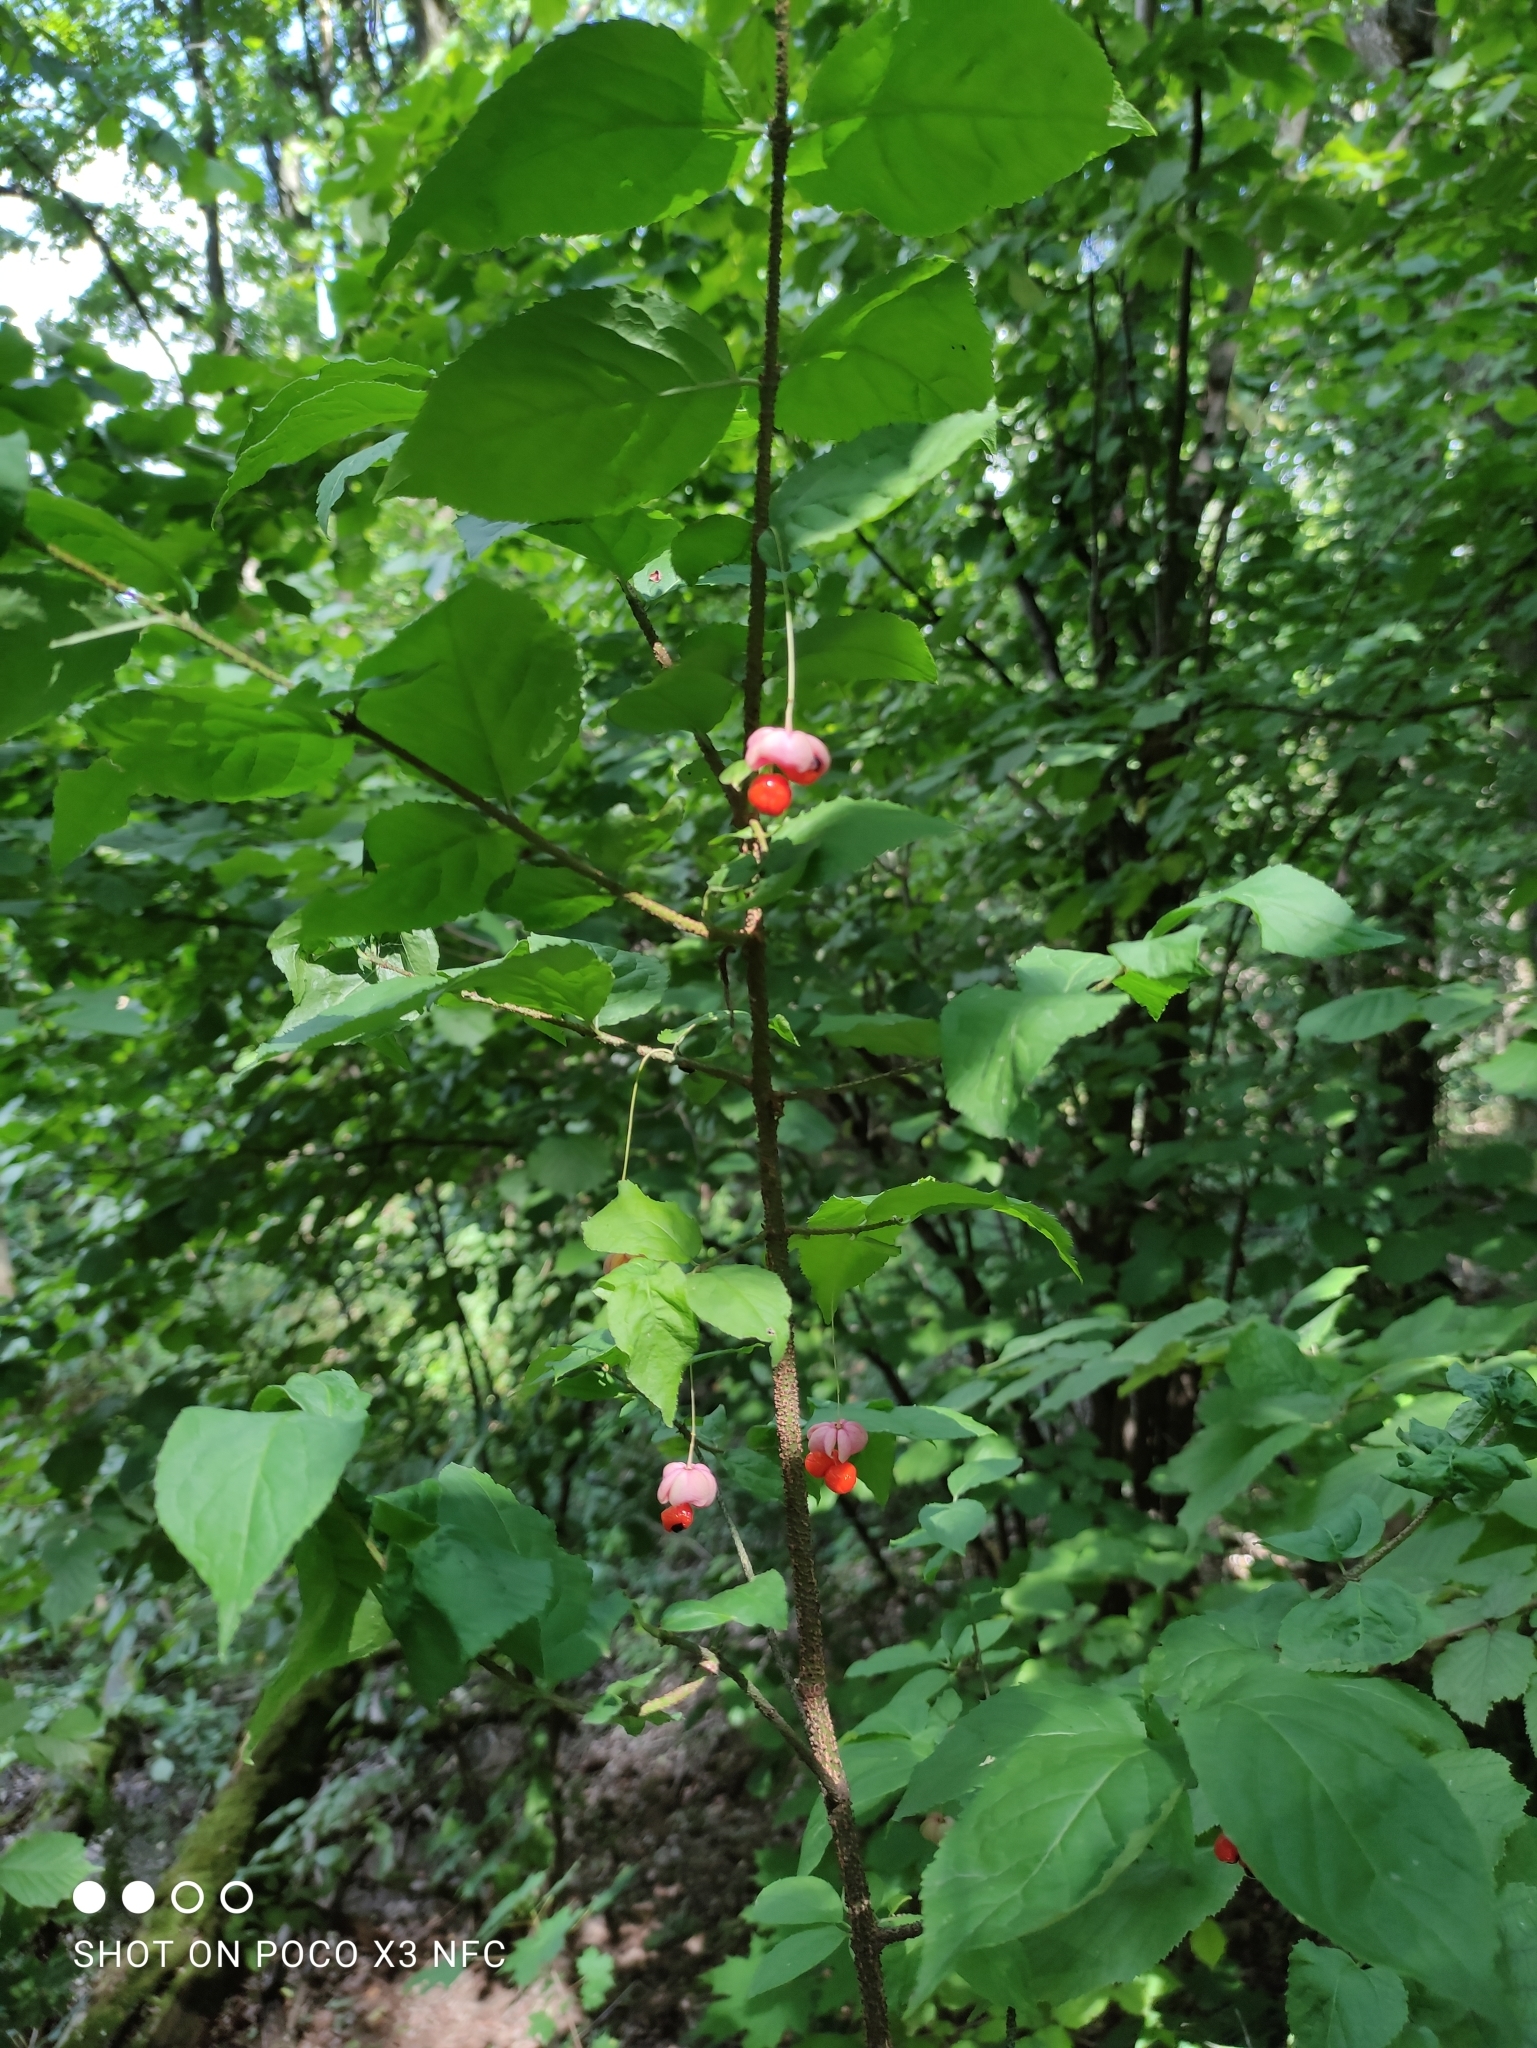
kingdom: Plantae
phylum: Tracheophyta
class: Magnoliopsida
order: Celastrales
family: Celastraceae
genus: Euonymus
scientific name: Euonymus verrucosus
